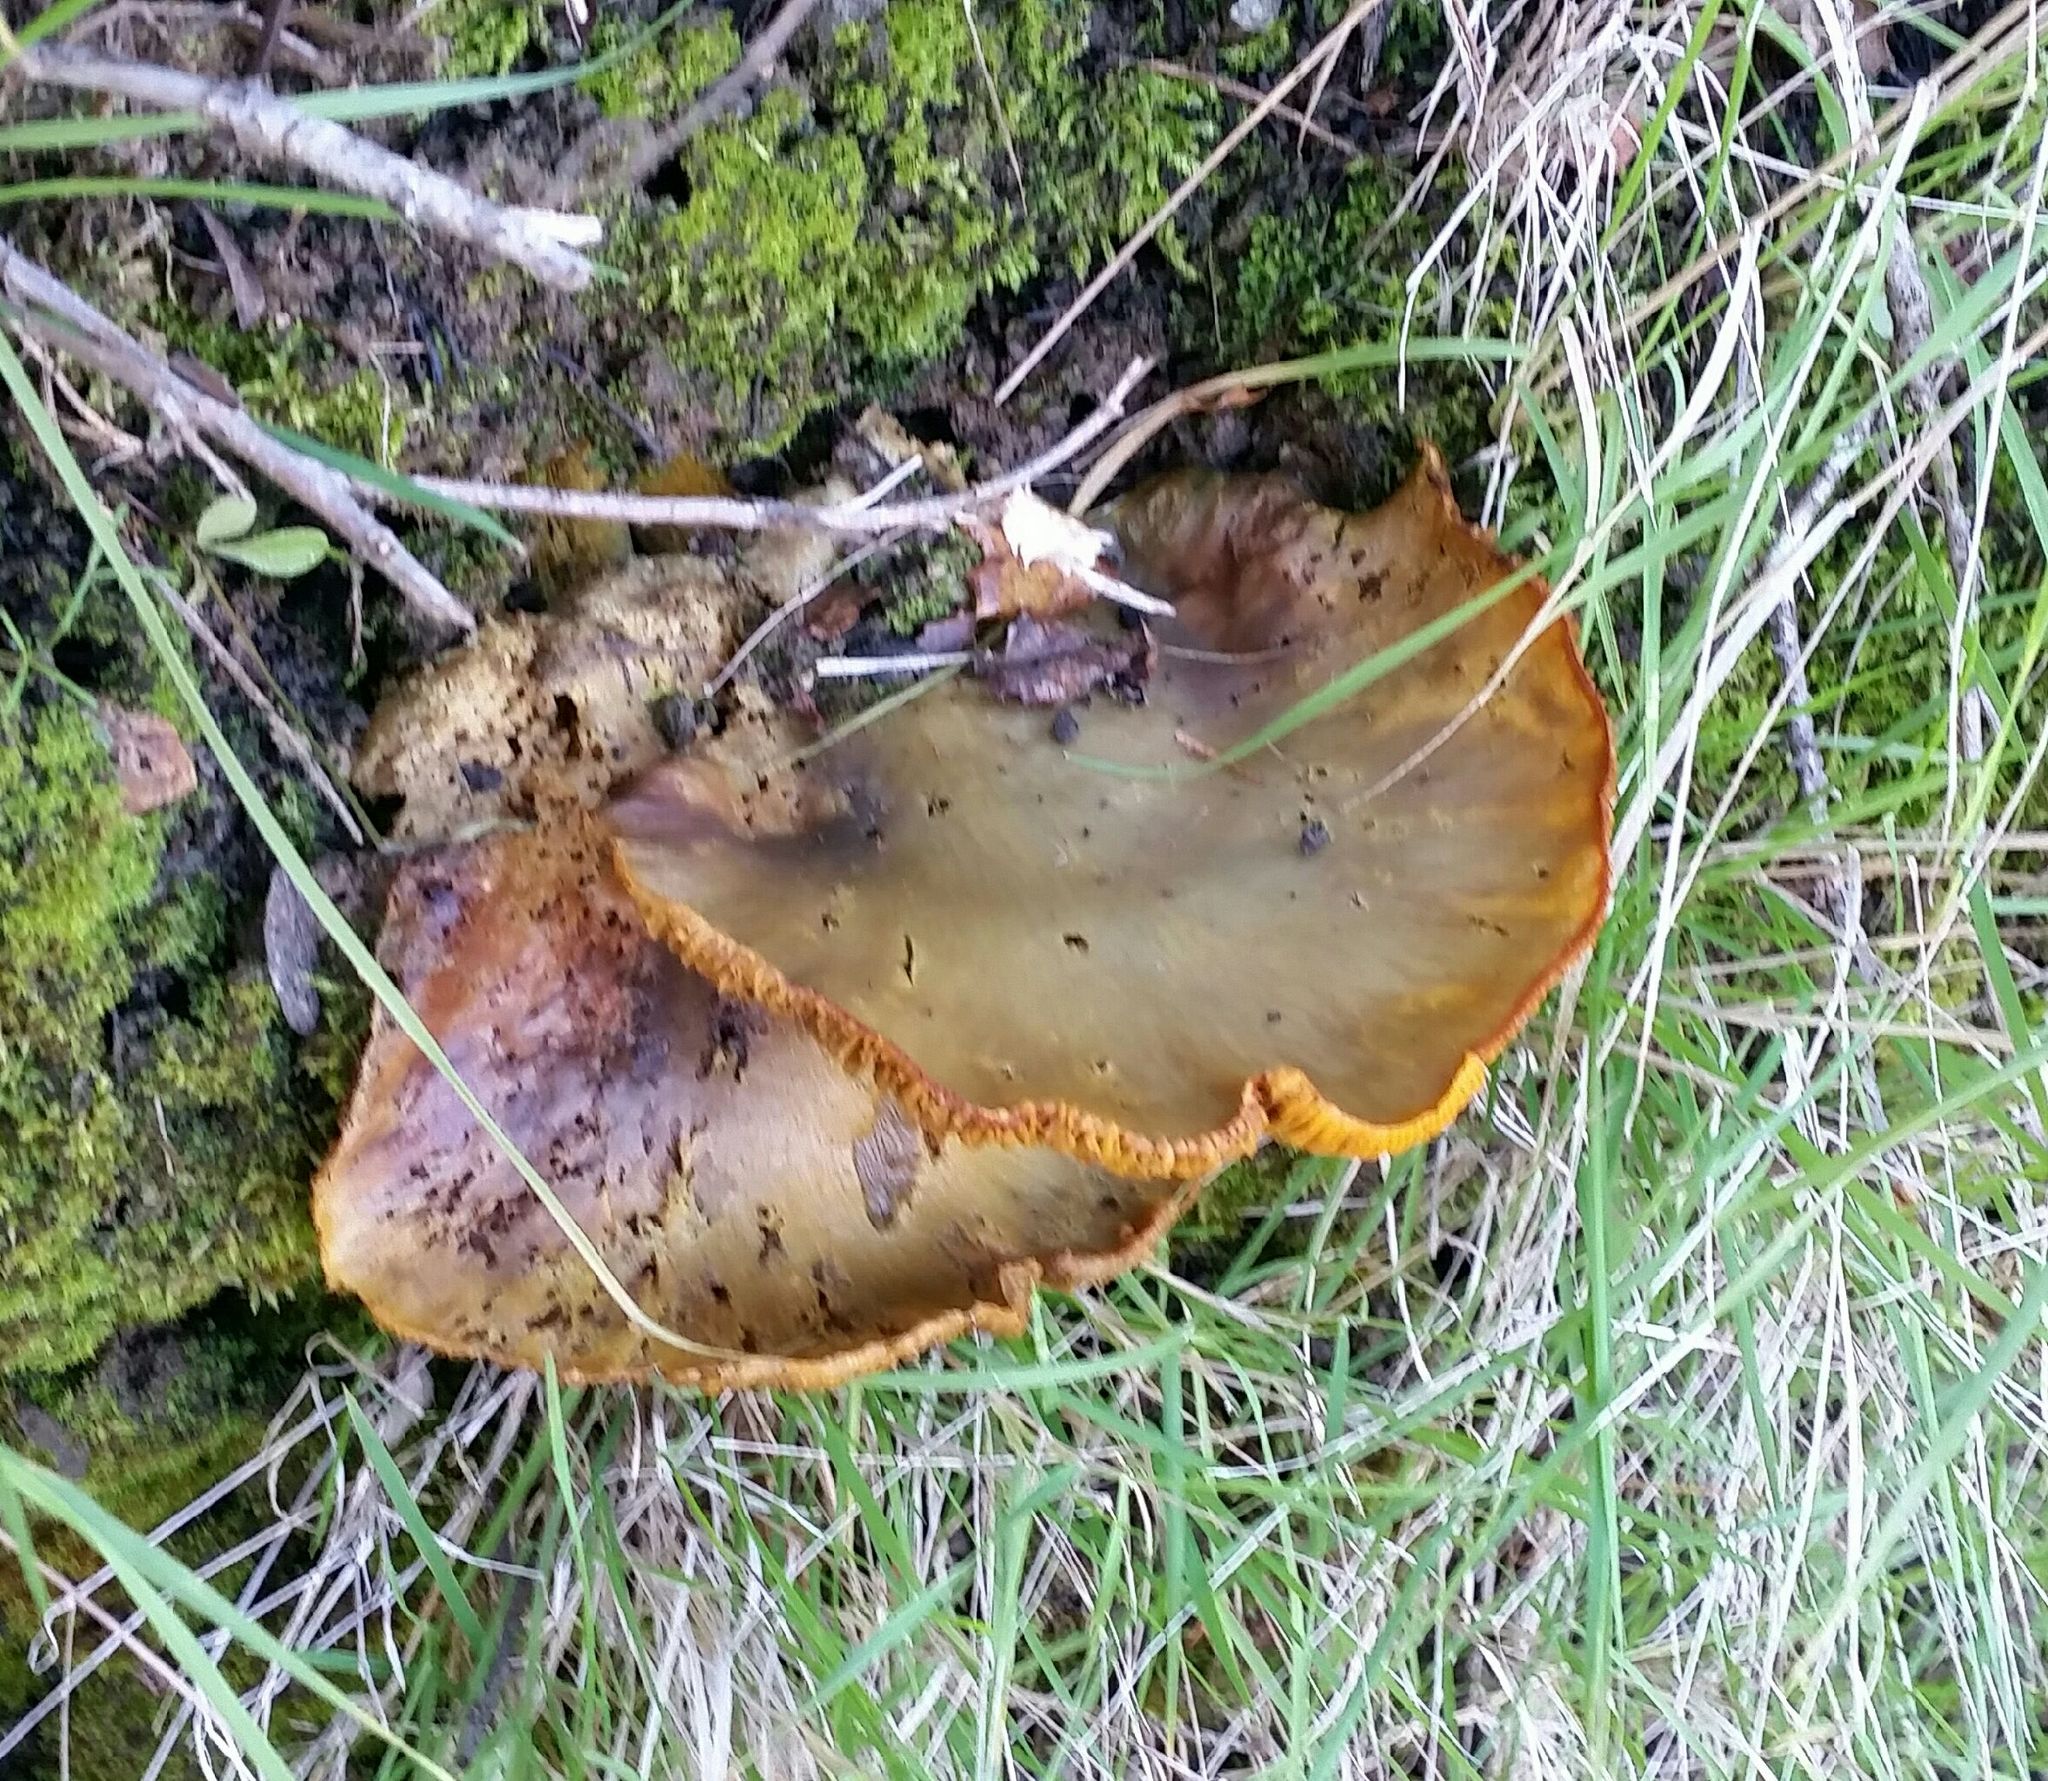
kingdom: Fungi
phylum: Basidiomycota
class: Agaricomycetes
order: Agaricales
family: Omphalotaceae
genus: Omphalotus
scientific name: Omphalotus olivascens
